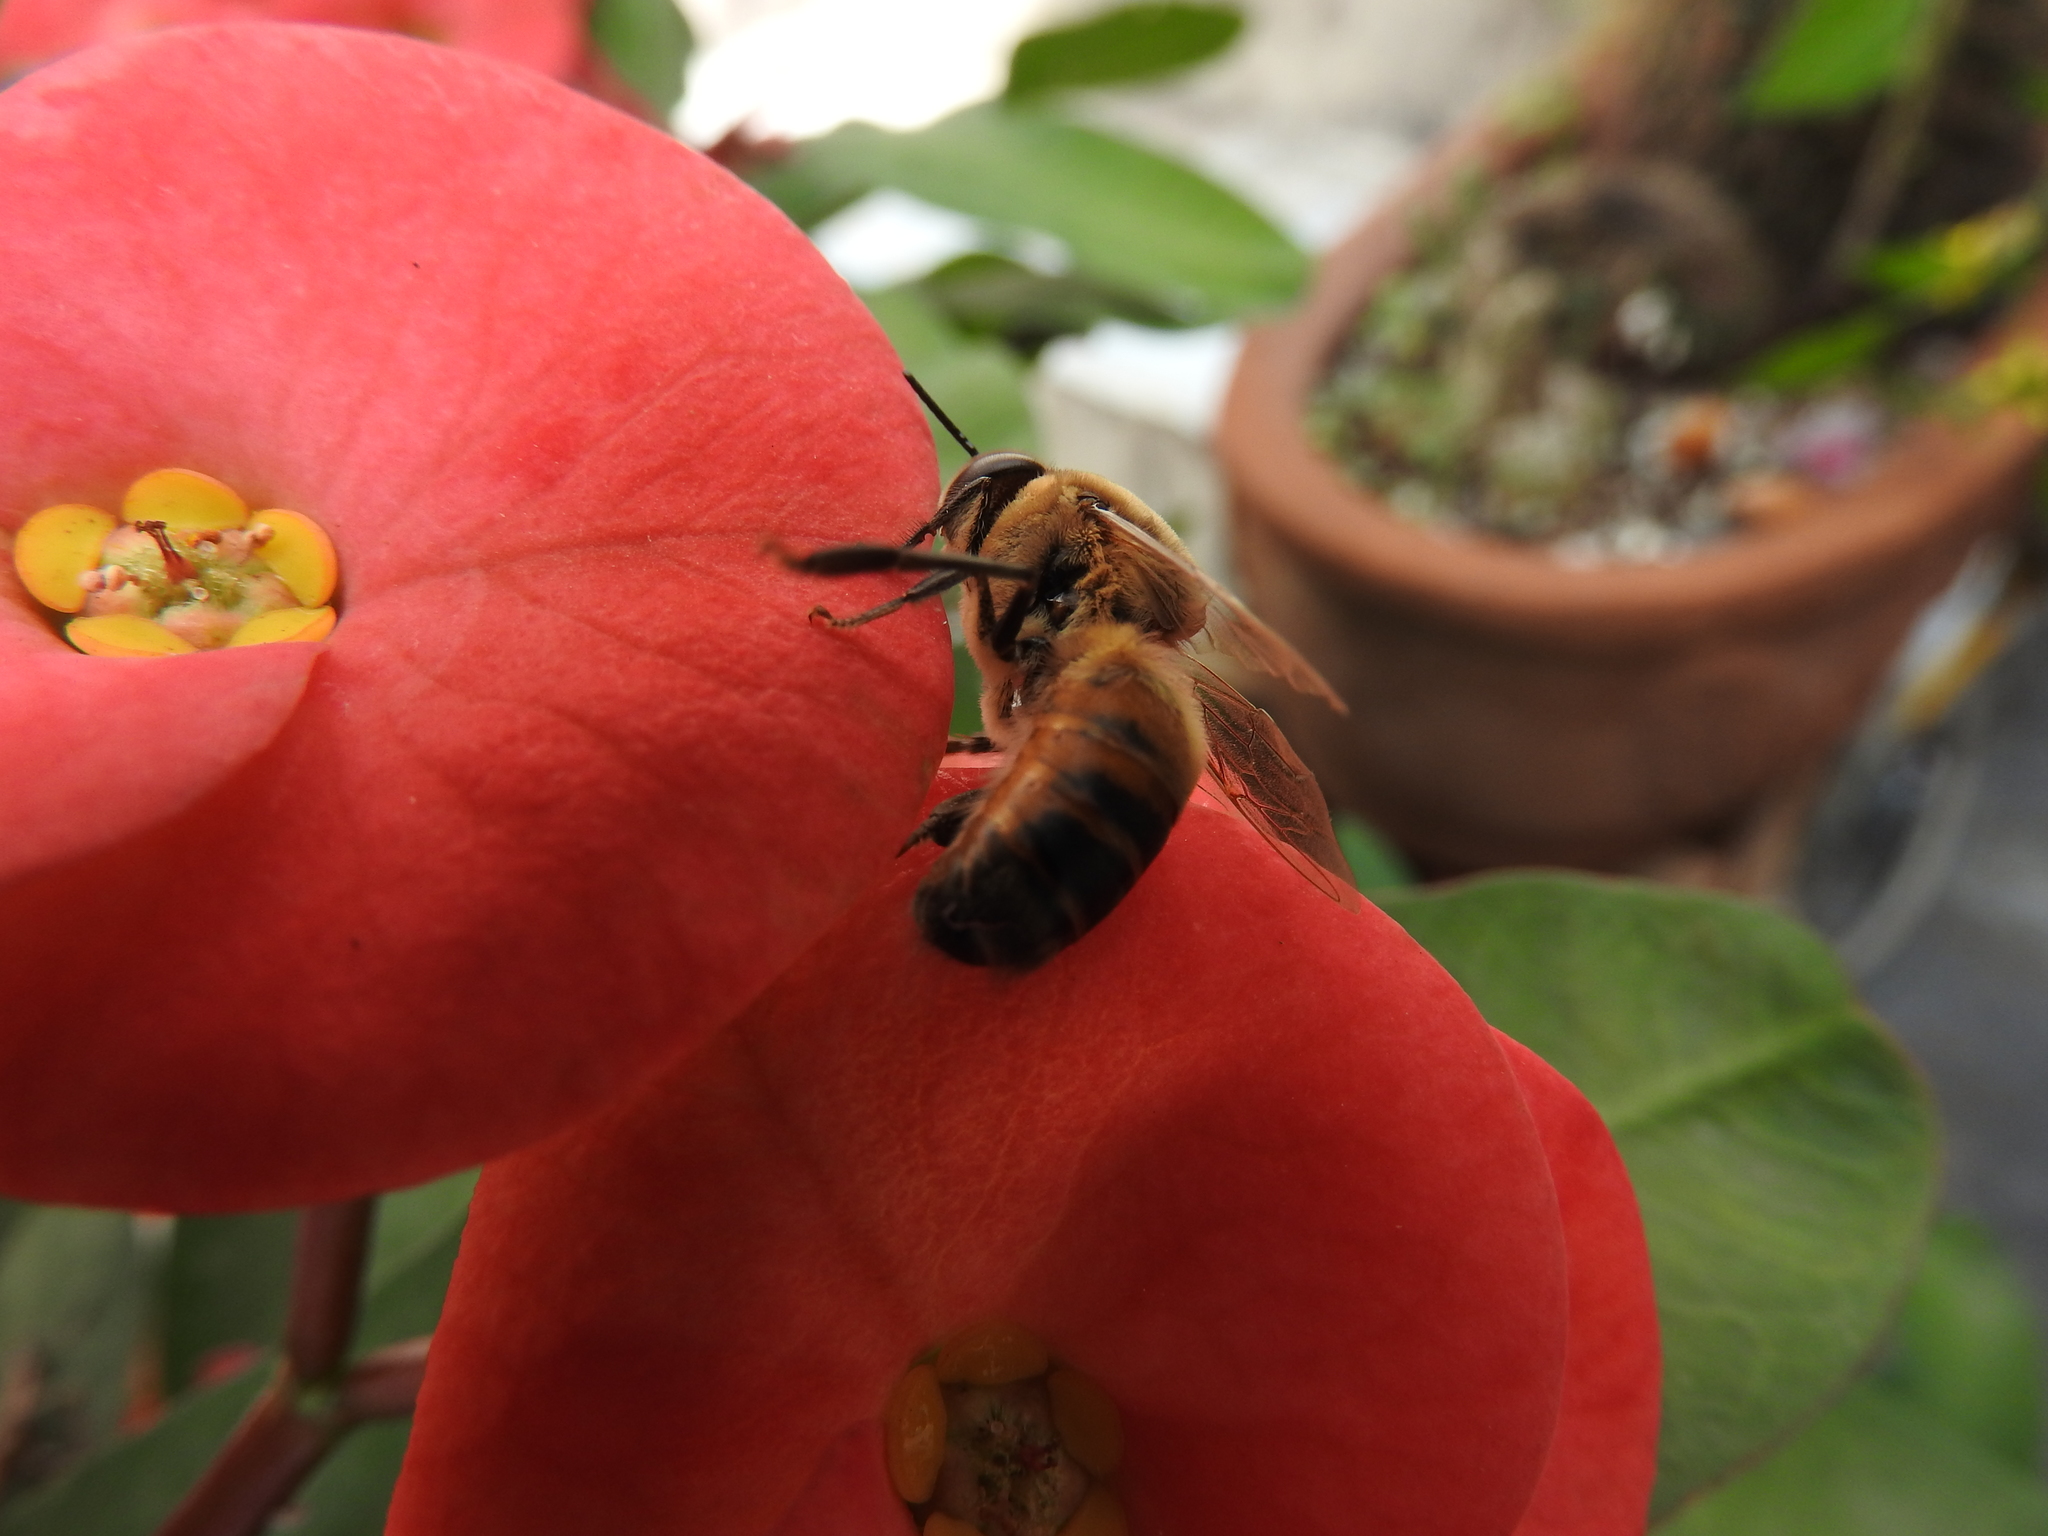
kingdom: Animalia
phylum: Arthropoda
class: Insecta
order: Hymenoptera
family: Apidae
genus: Apis
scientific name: Apis mellifera
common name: Honey bee
